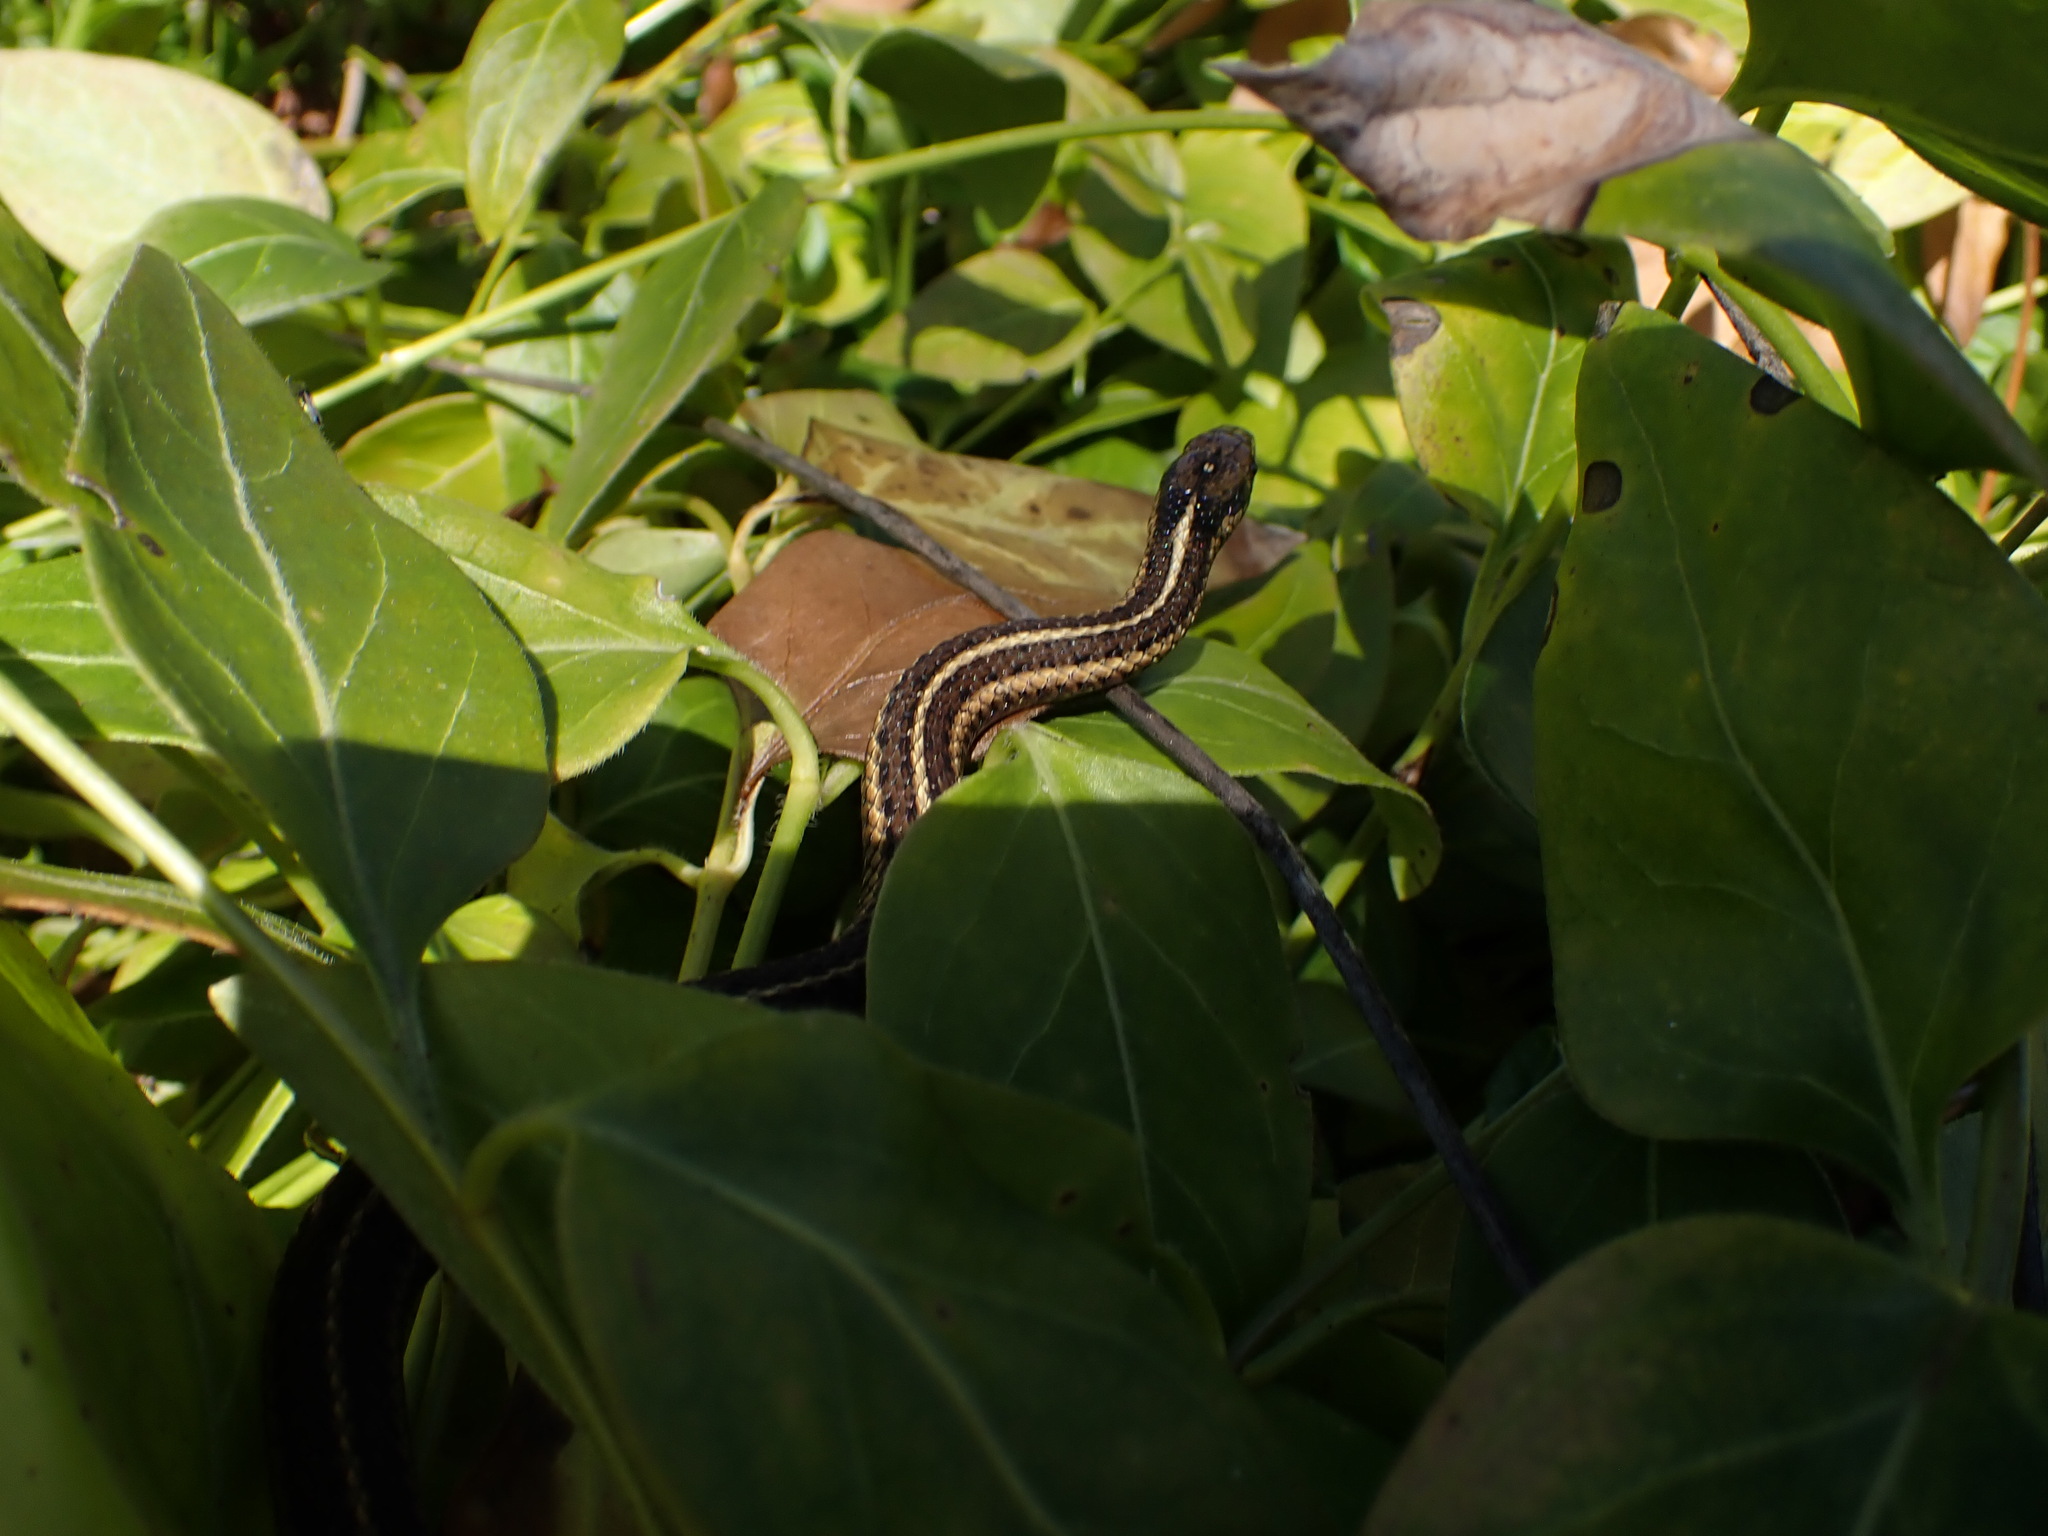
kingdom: Animalia
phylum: Chordata
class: Squamata
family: Colubridae
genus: Thamnophis
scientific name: Thamnophis ordinoides
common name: Northwestern garter snake
